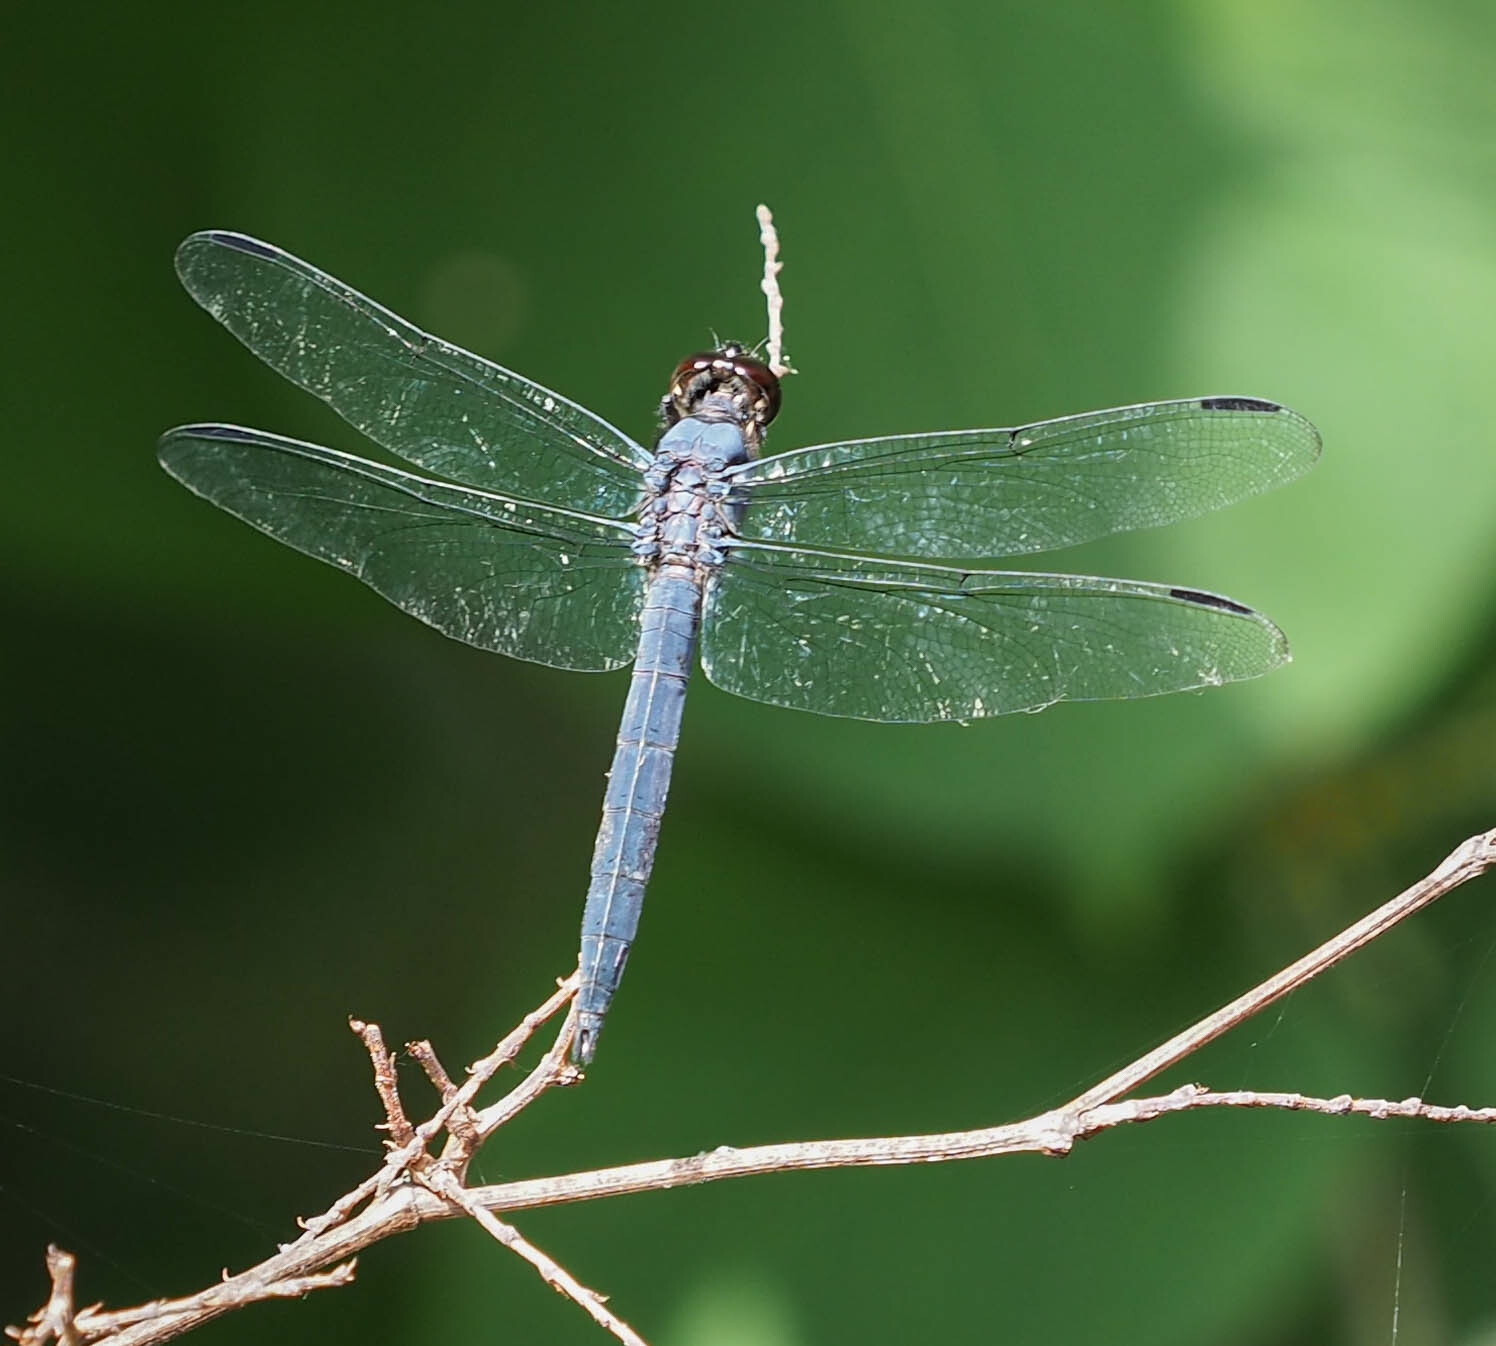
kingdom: Animalia
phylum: Arthropoda
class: Insecta
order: Odonata
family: Libellulidae
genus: Libellula
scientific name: Libellula incesta
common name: Slaty skimmer
